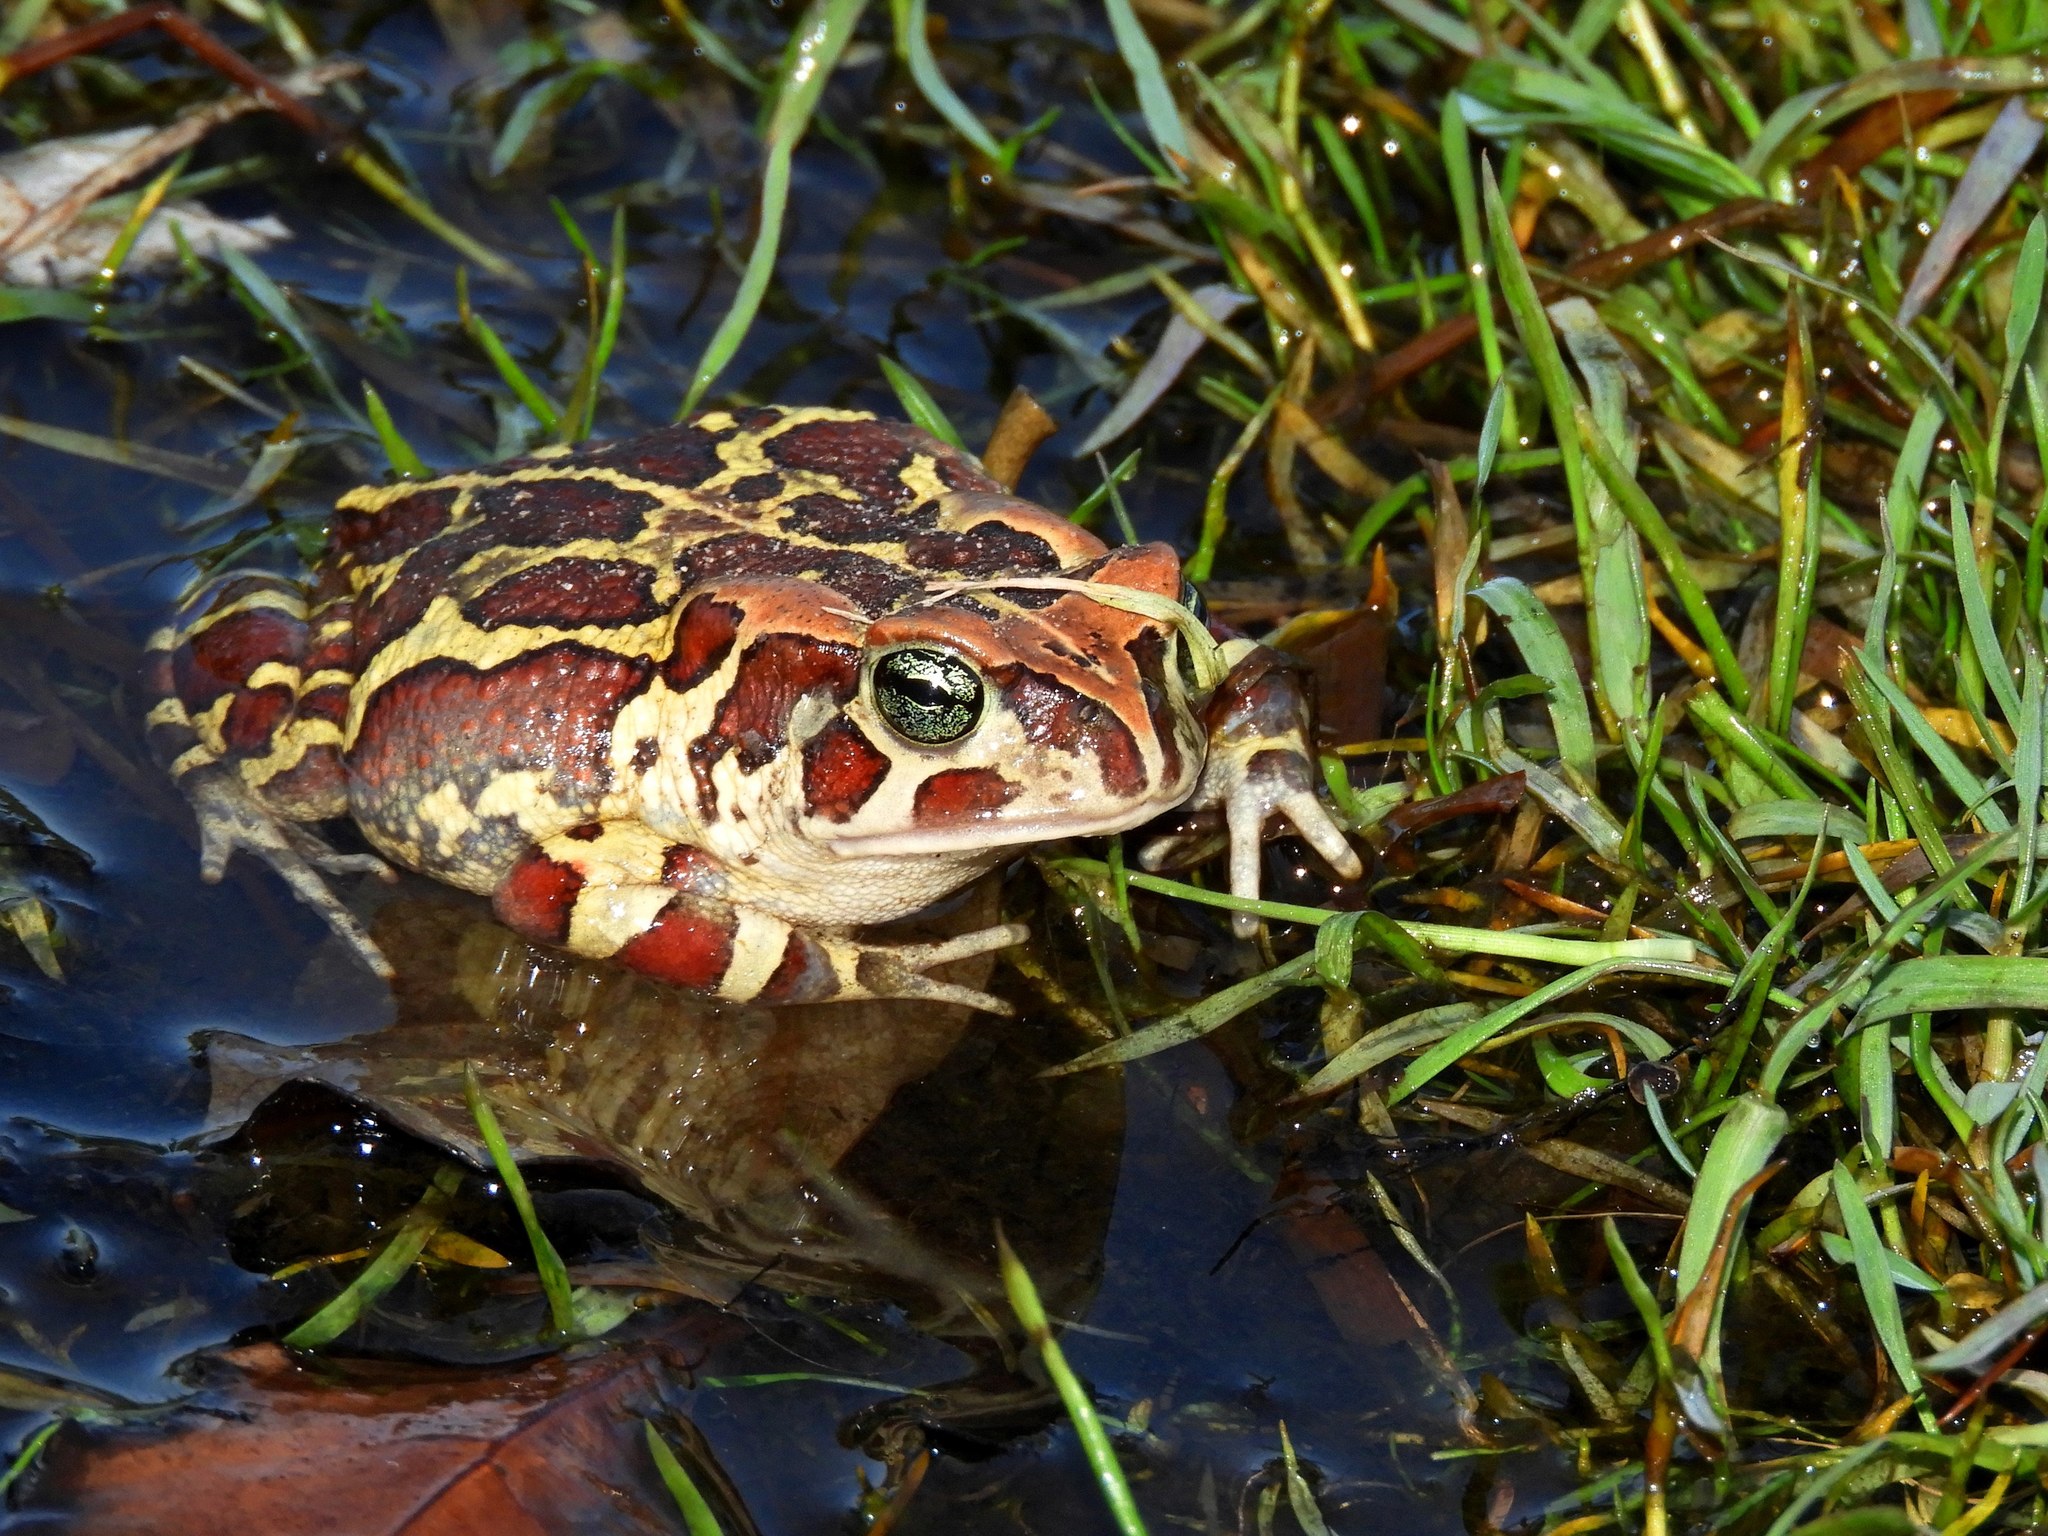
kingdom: Animalia
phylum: Chordata
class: Amphibia
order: Anura
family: Bufonidae
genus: Sclerophrys
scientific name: Sclerophrys pantherina
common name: Panther toad
